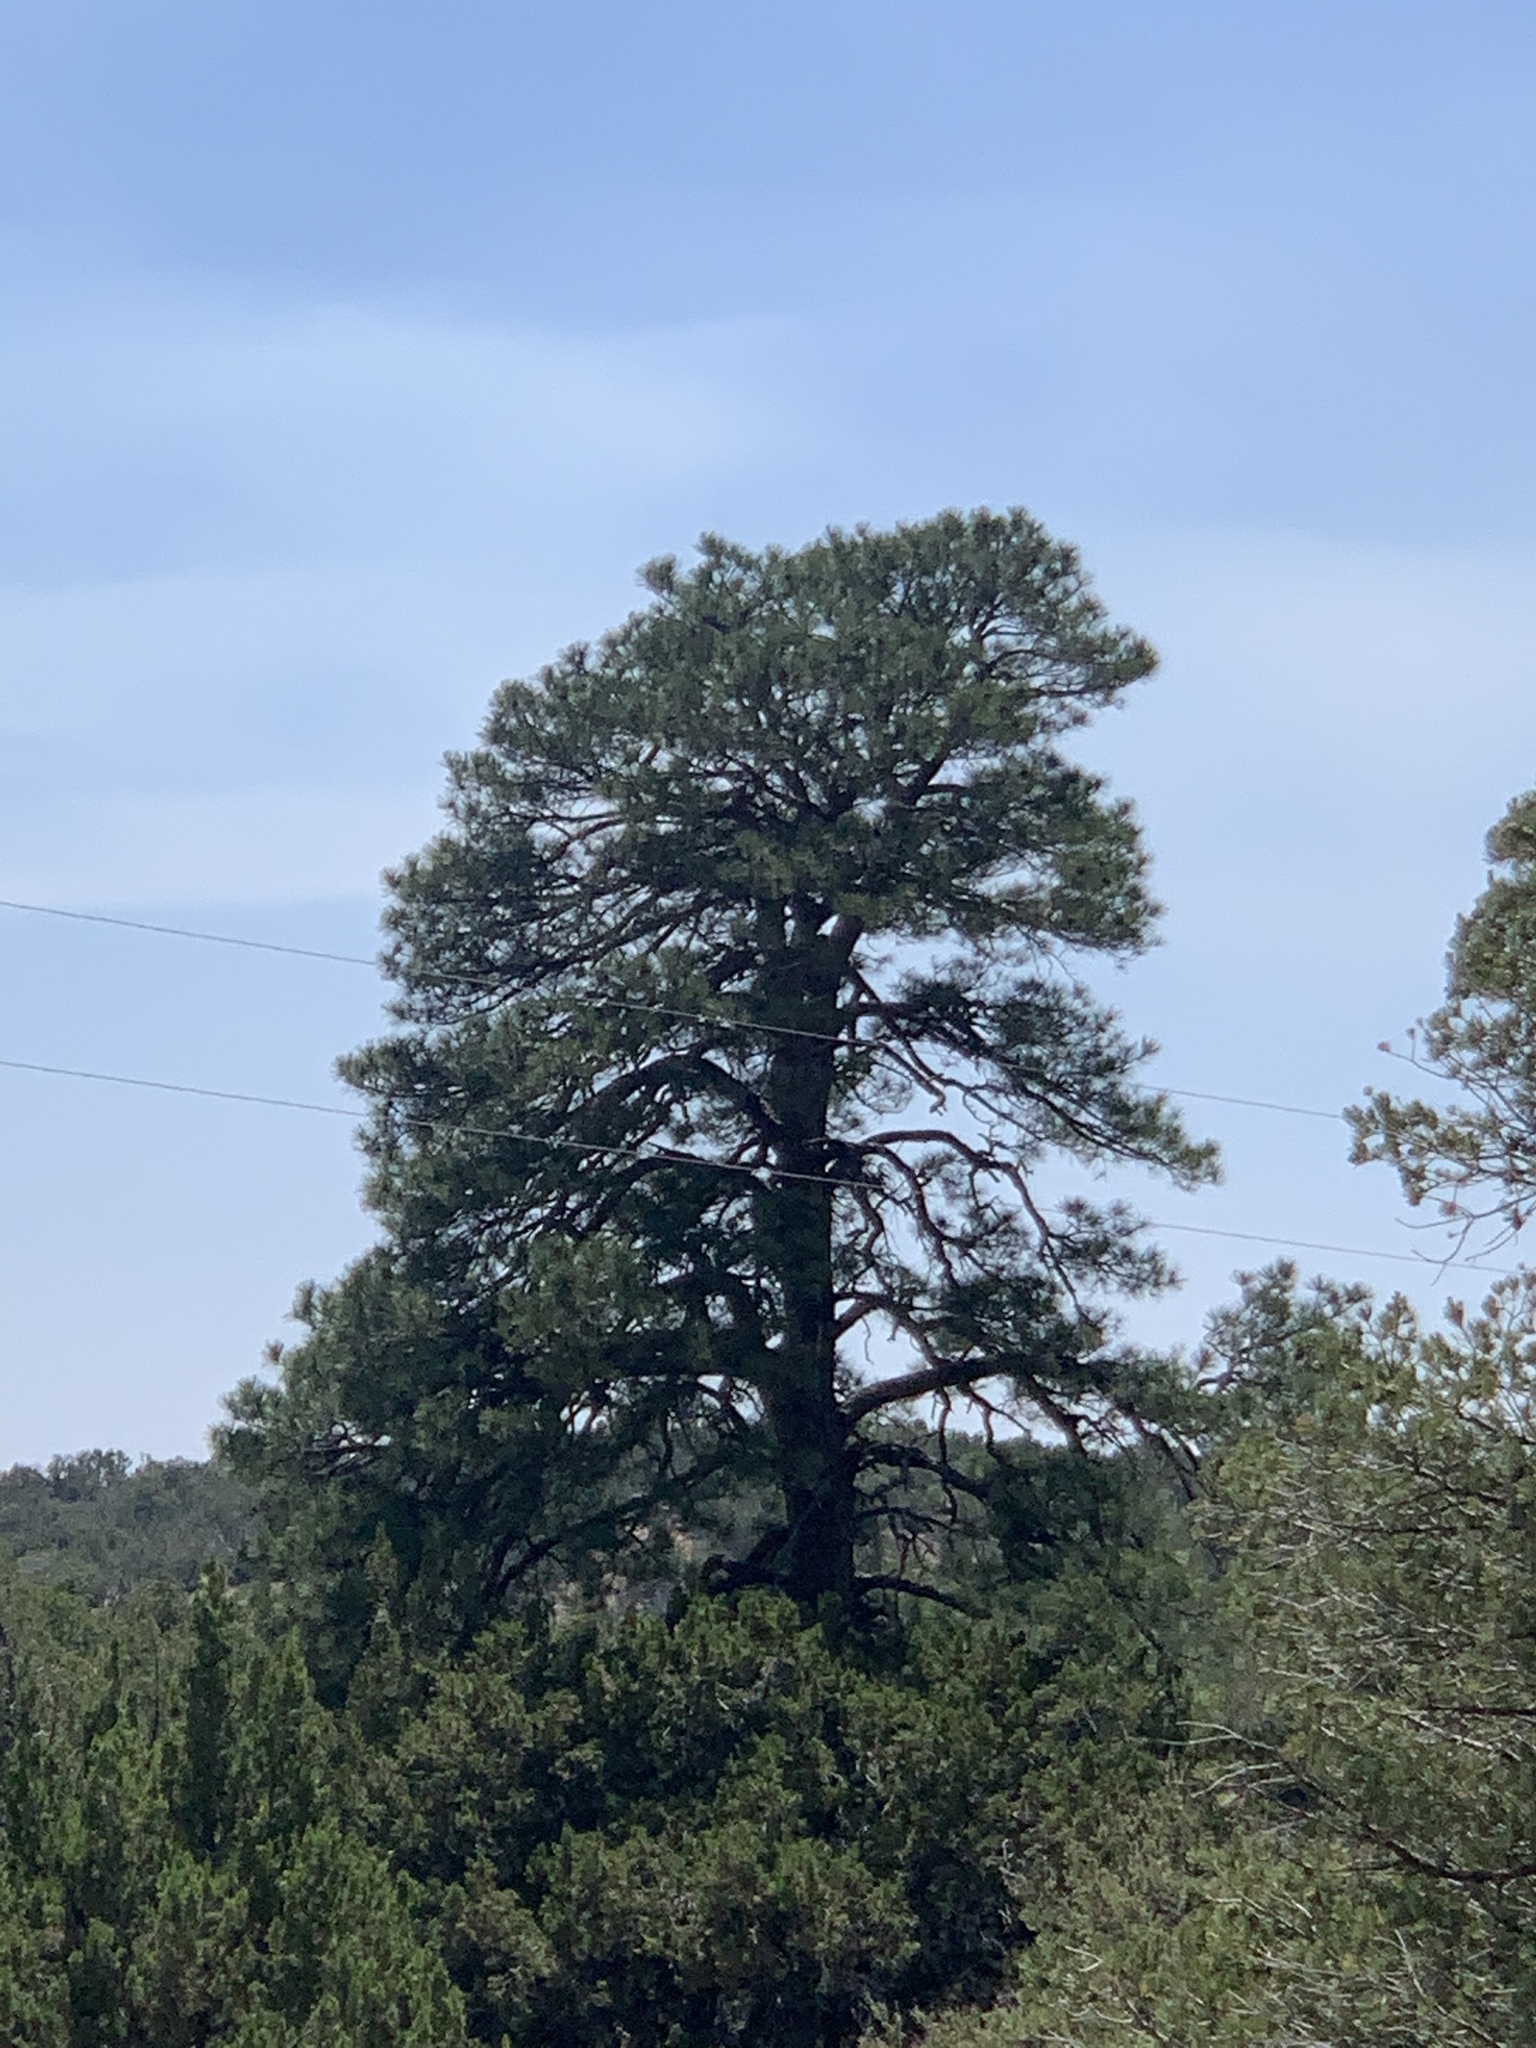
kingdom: Plantae
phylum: Tracheophyta
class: Pinopsida
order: Pinales
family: Pinaceae
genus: Pinus
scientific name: Pinus ponderosa
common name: Western yellow-pine
